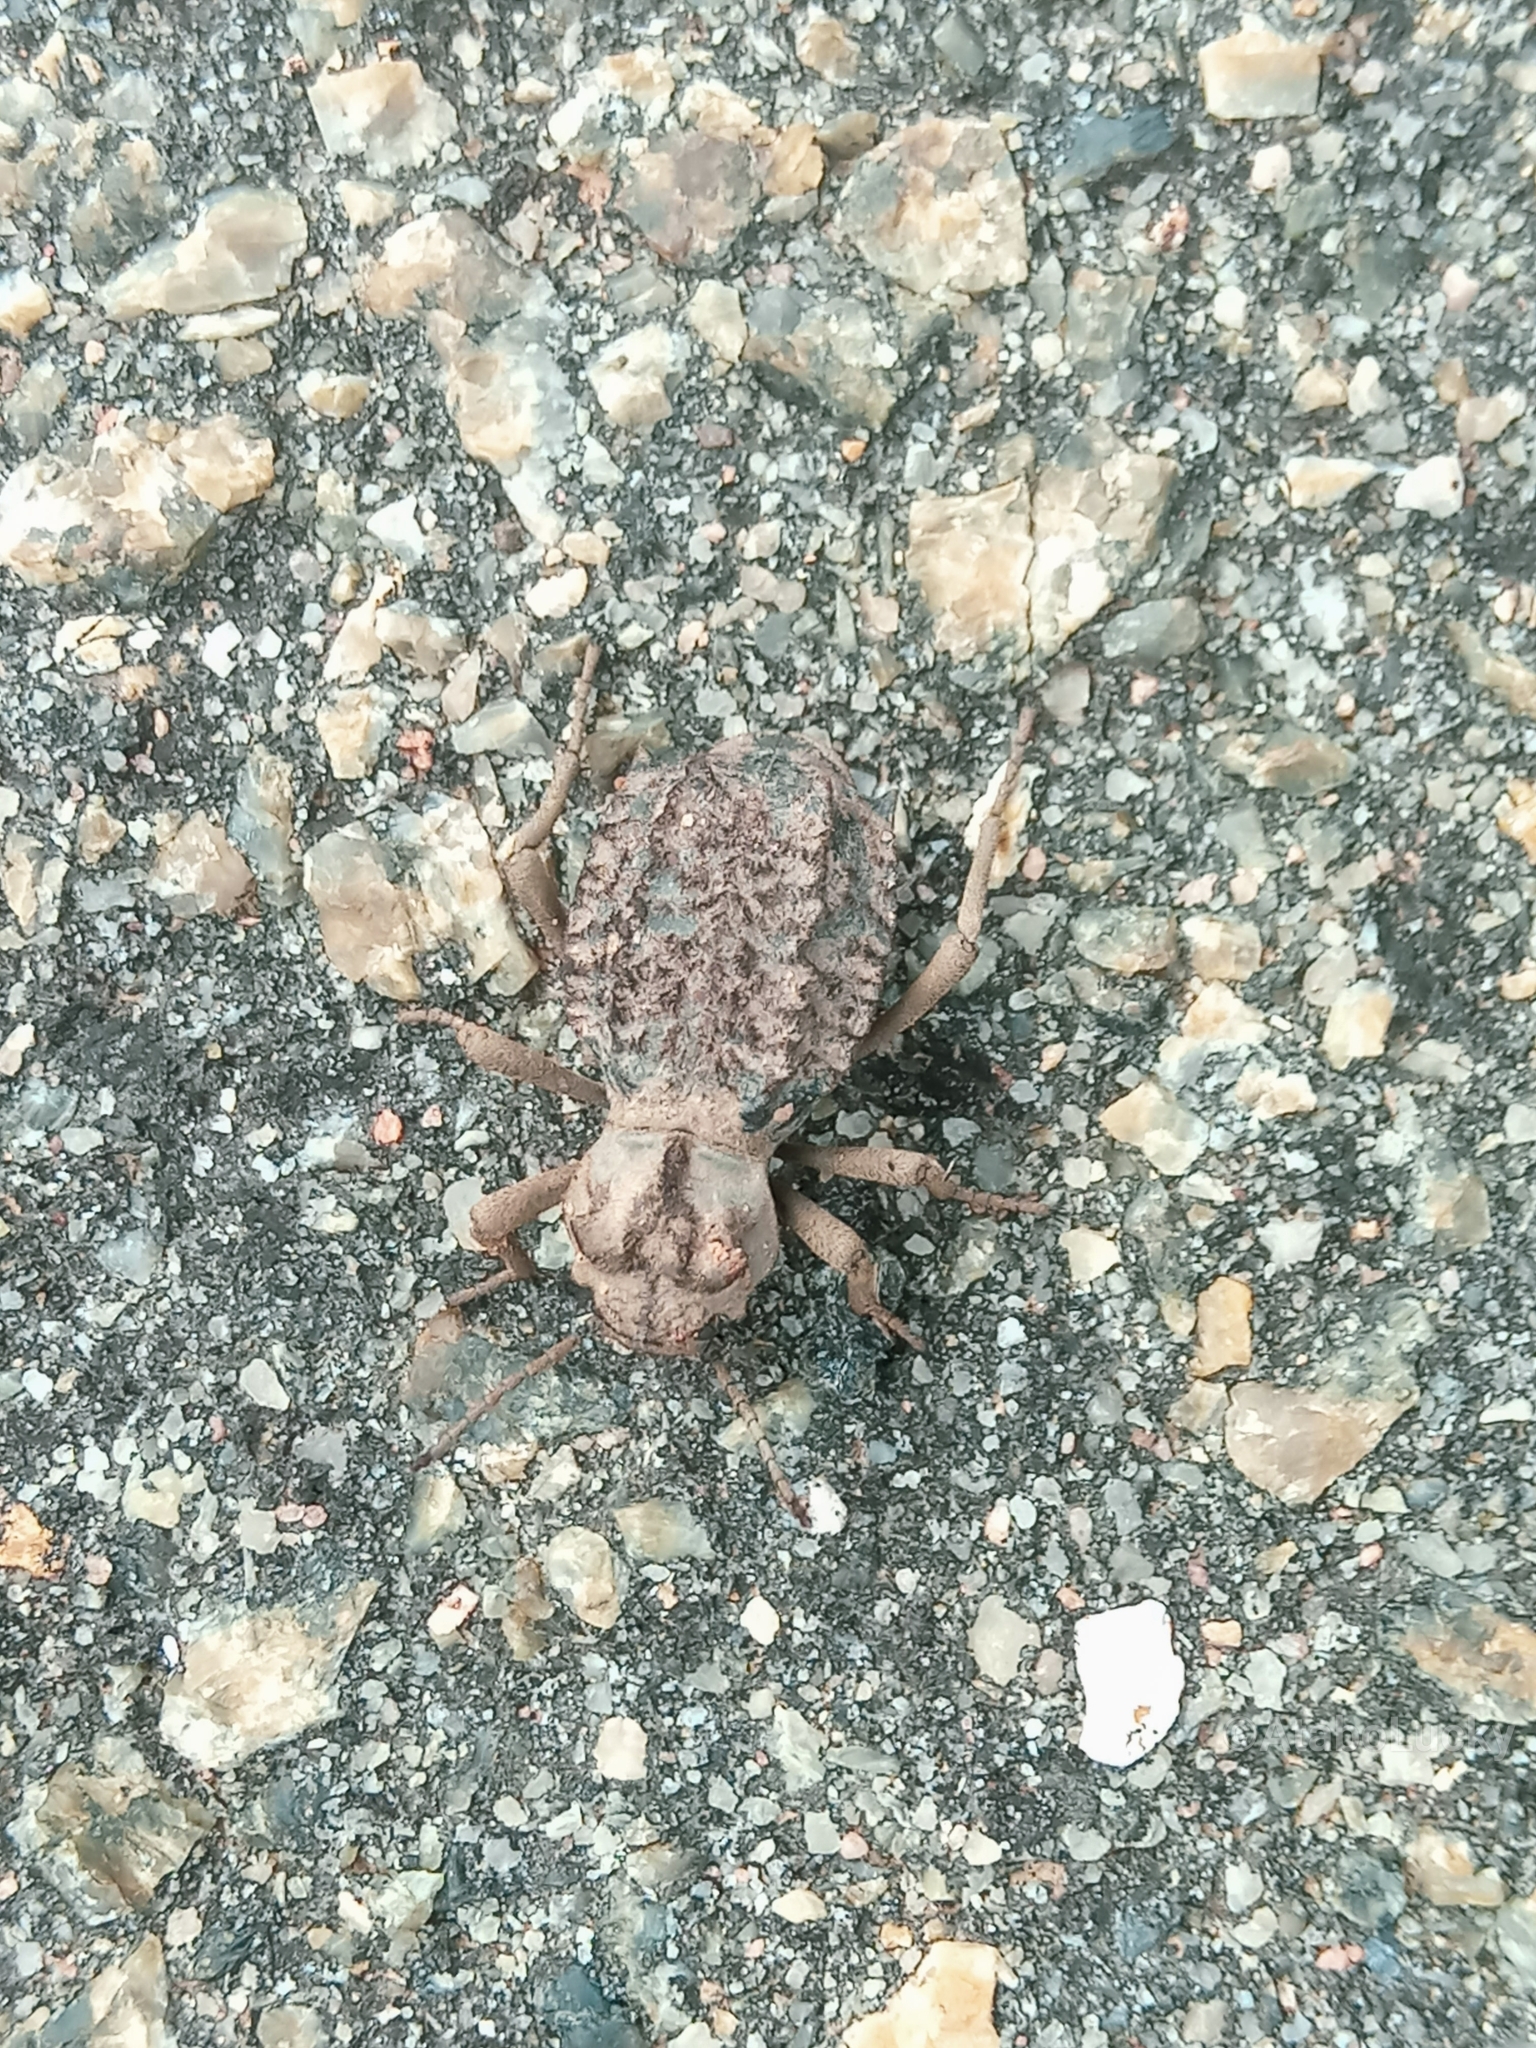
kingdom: Animalia
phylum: Arthropoda
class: Insecta
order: Coleoptera
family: Tenebrionidae
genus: Phrynocolus
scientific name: Phrynocolus dentatus
